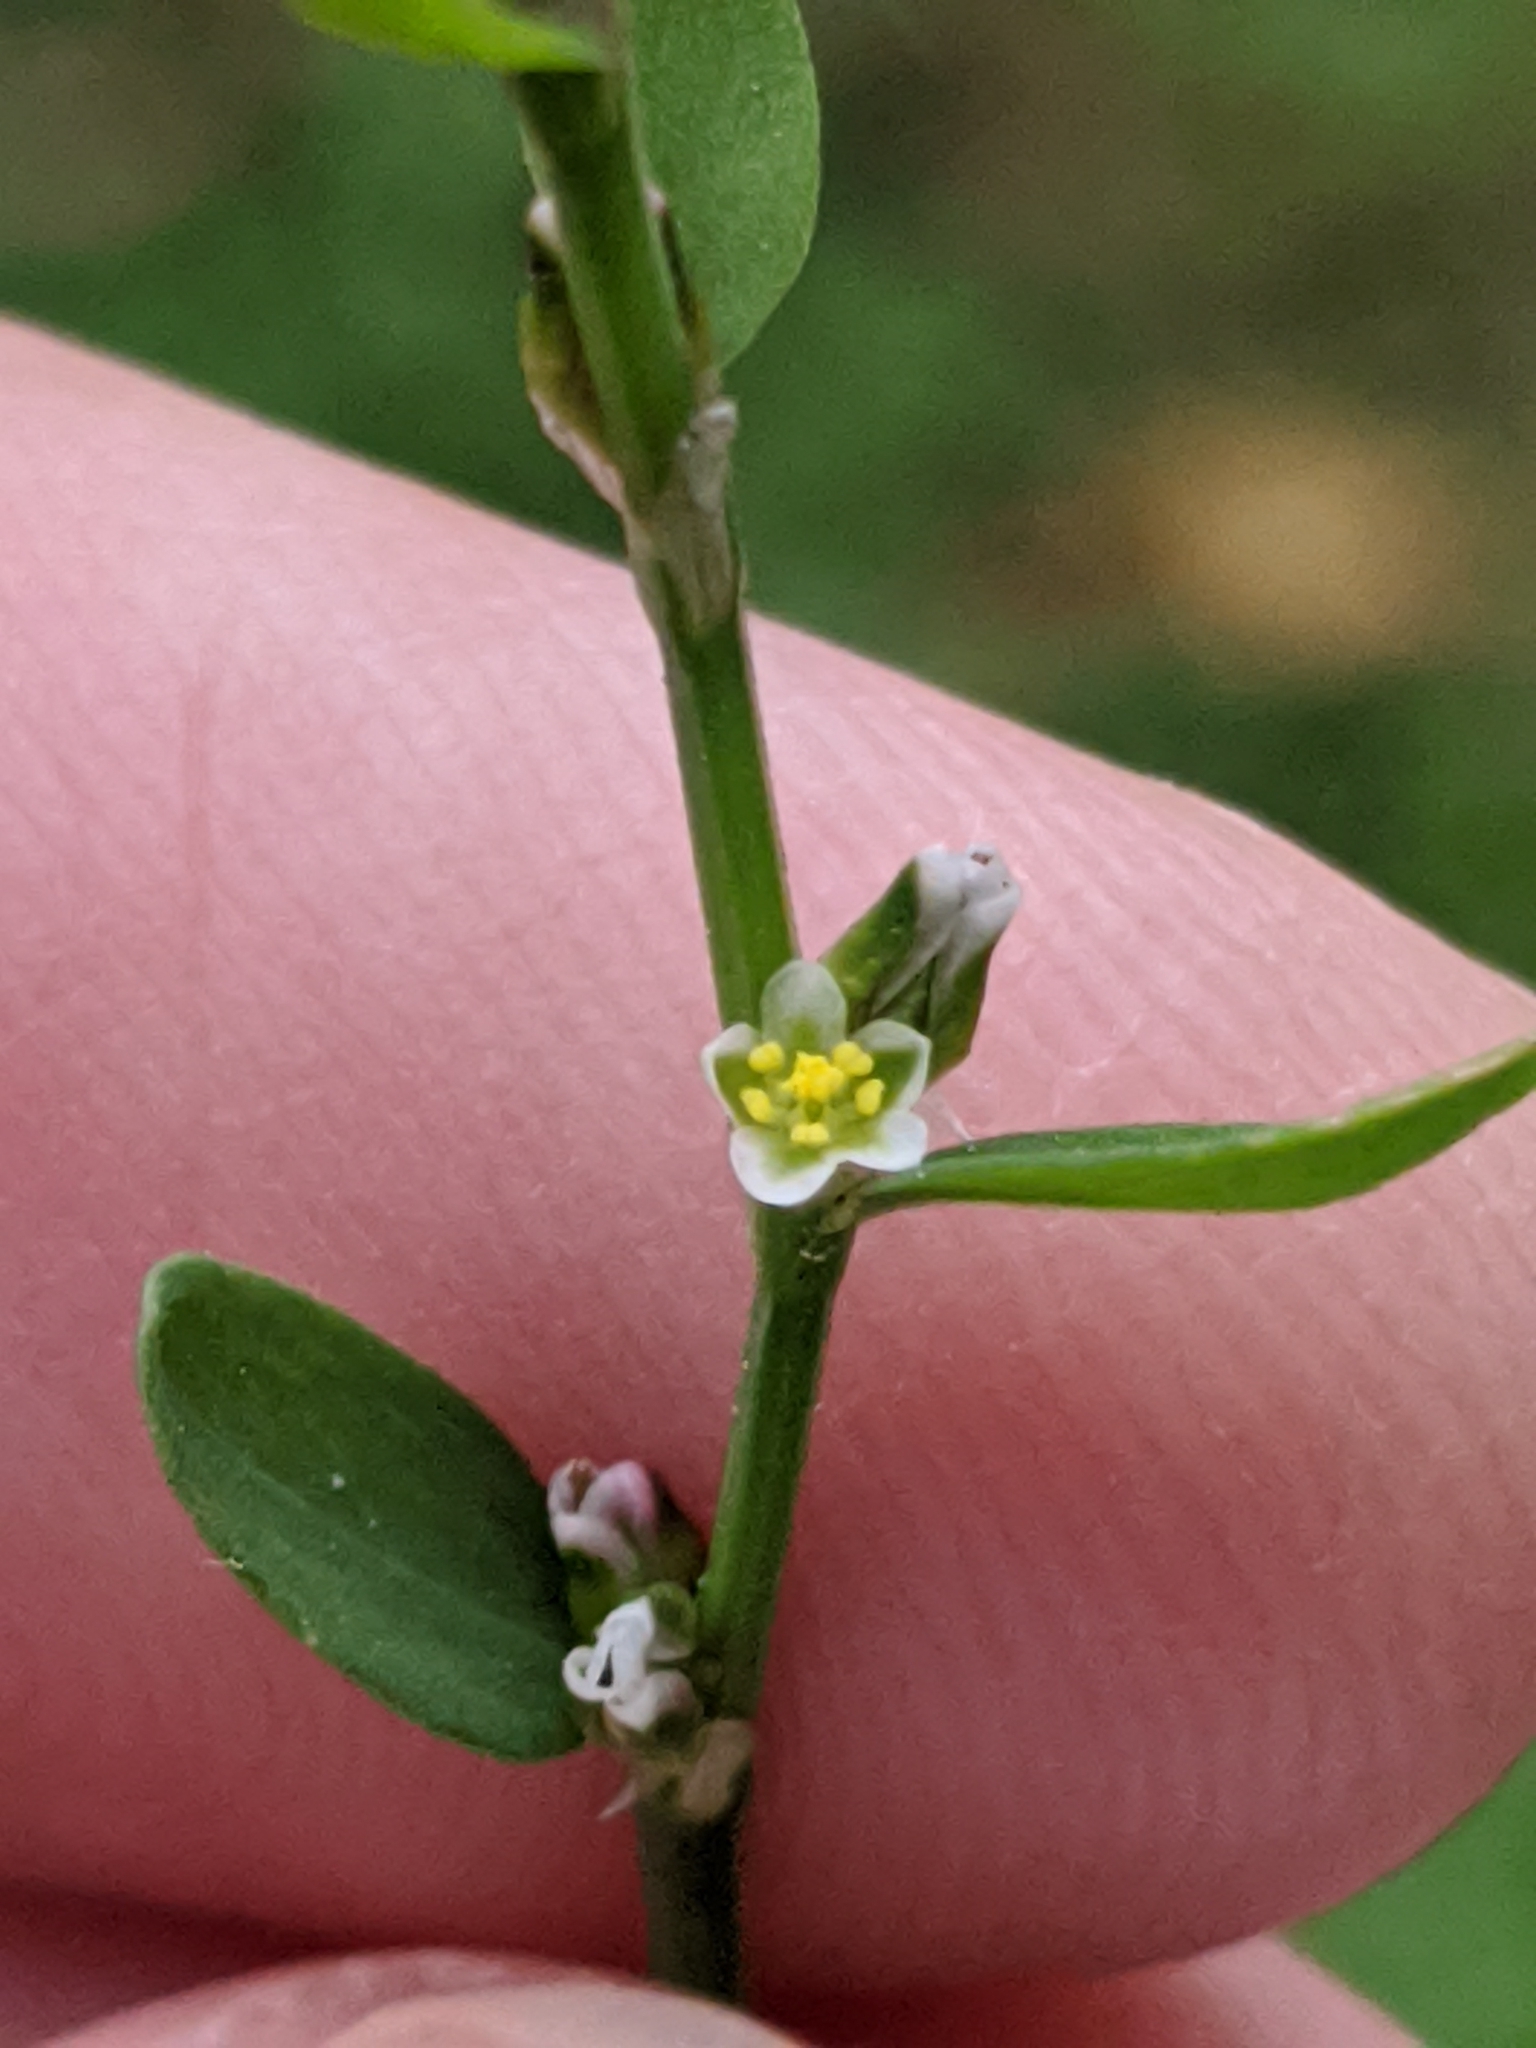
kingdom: Plantae
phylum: Tracheophyta
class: Magnoliopsida
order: Caryophyllales
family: Polygonaceae
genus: Polygonum
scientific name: Polygonum aviculare
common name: Prostrate knotweed
